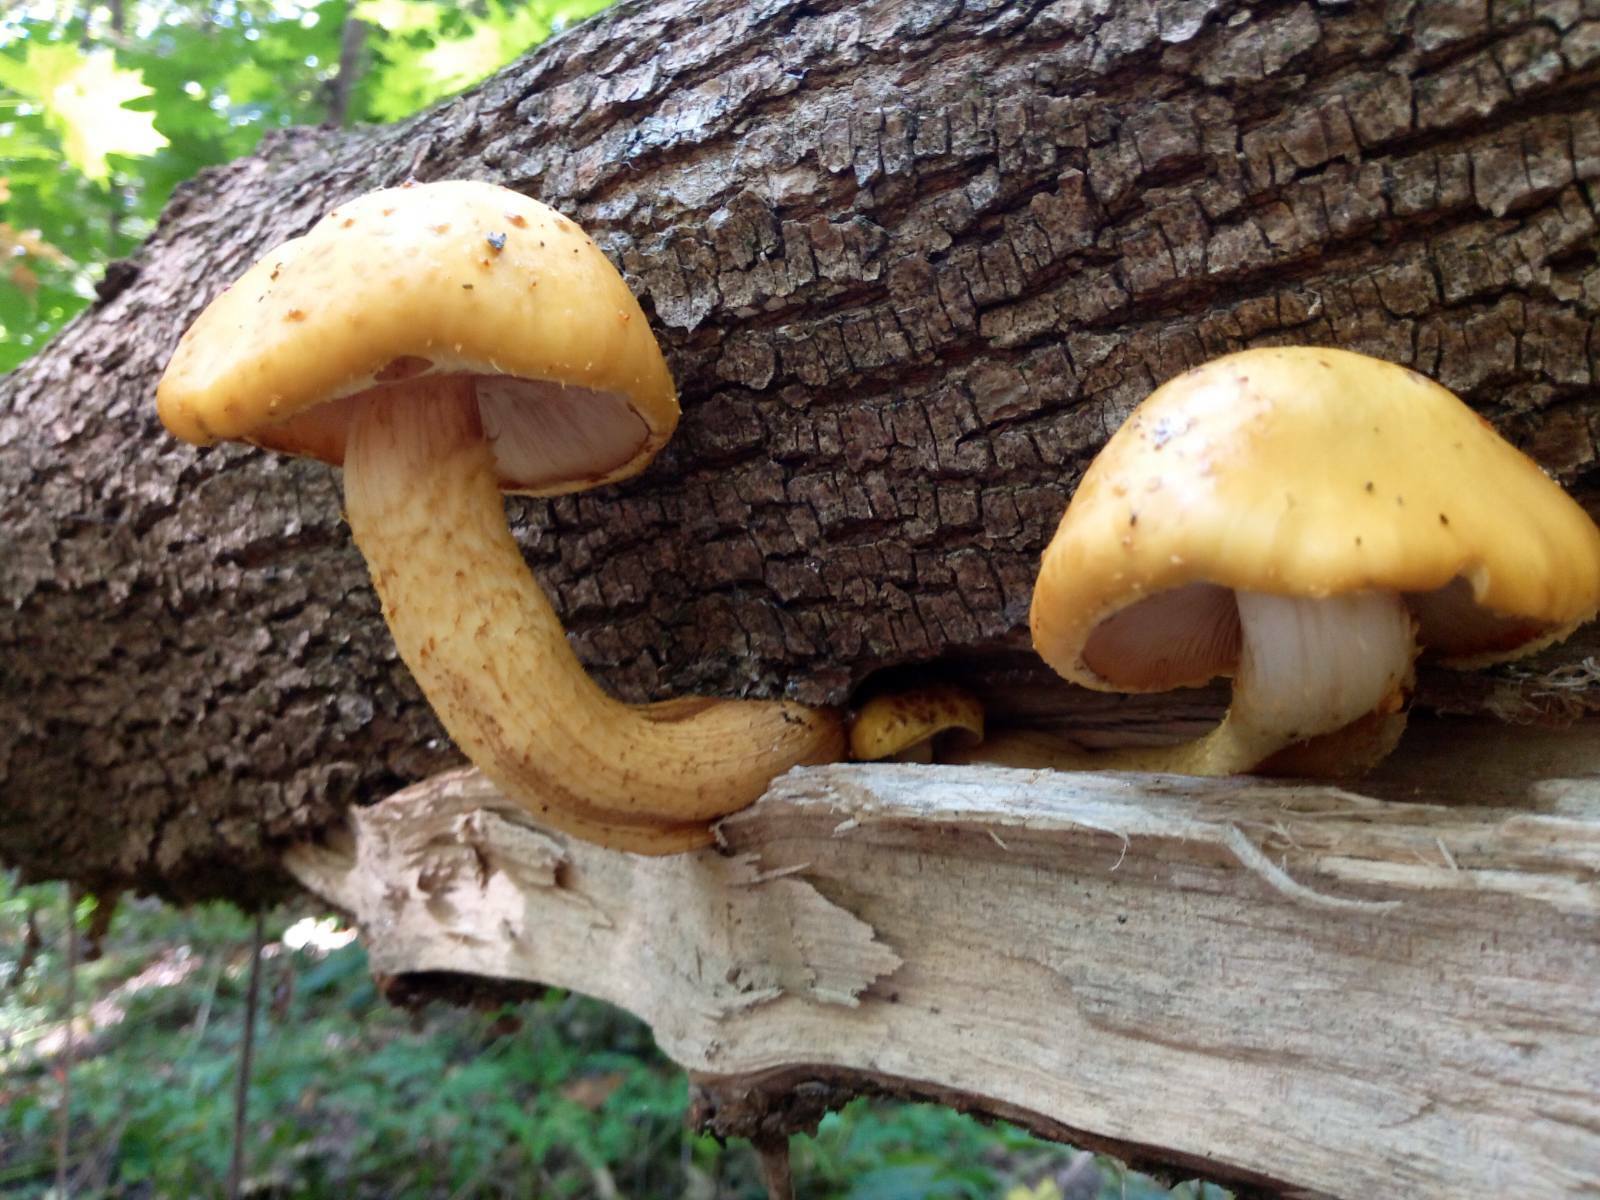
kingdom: Fungi
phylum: Basidiomycota
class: Agaricomycetes
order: Agaricales
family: Strophariaceae
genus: Pholiota
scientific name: Pholiota aurivella
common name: Golden scalycap
